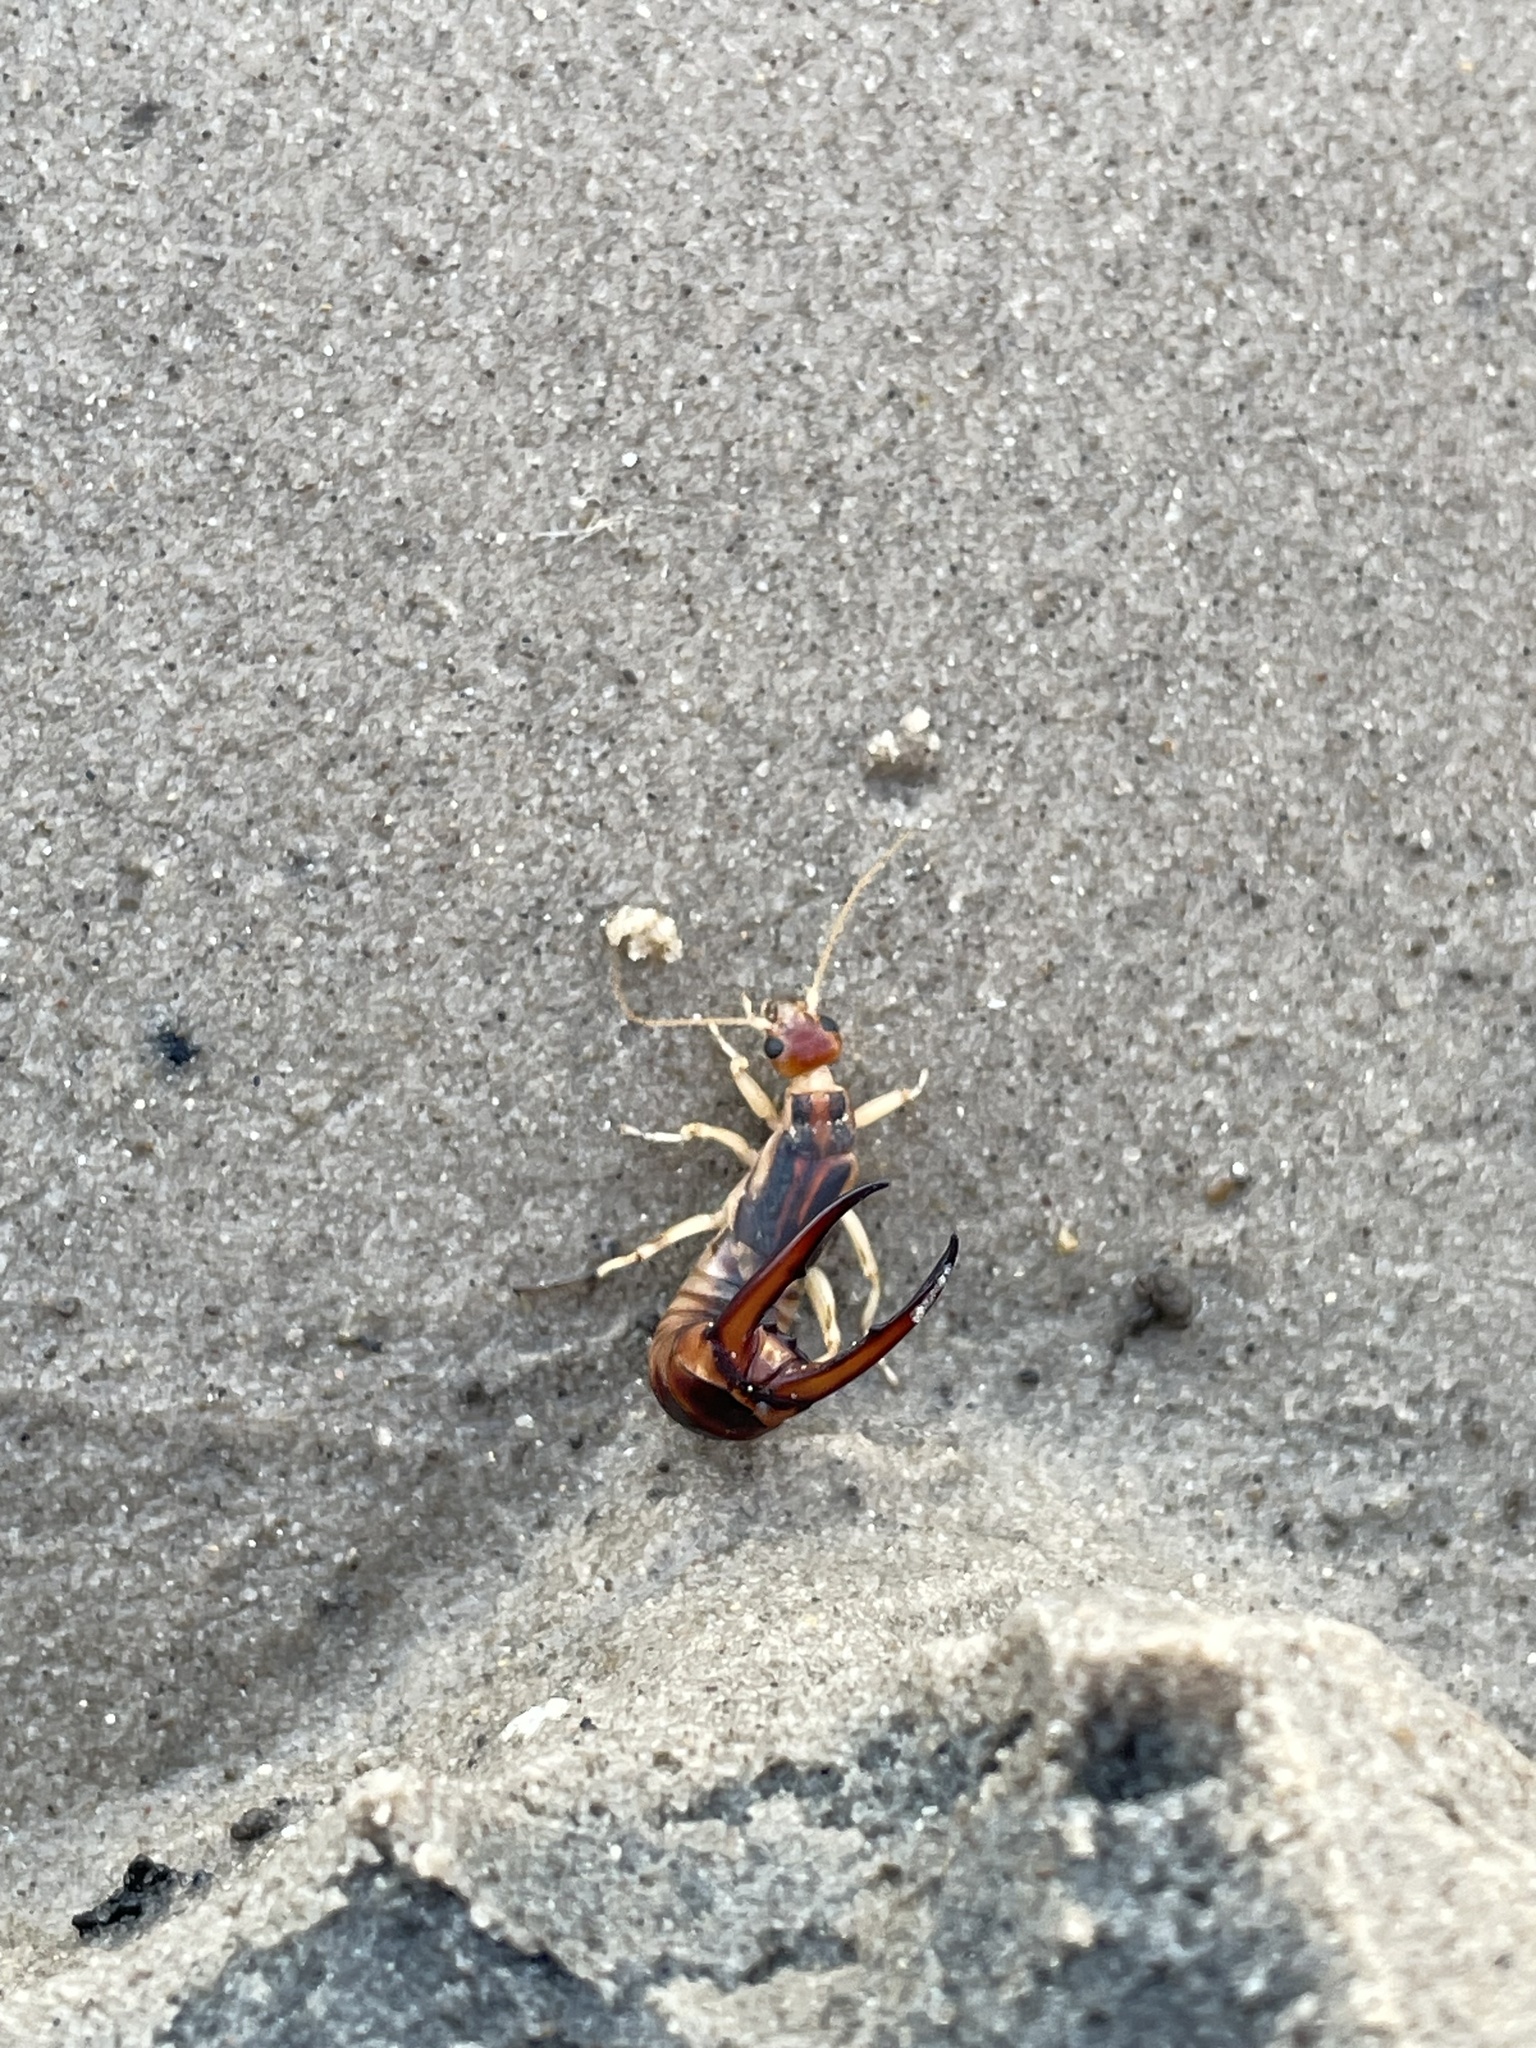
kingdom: Animalia
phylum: Arthropoda
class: Insecta
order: Dermaptera
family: Labiduridae
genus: Labidura
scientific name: Labidura riparia
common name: Striped earwig
